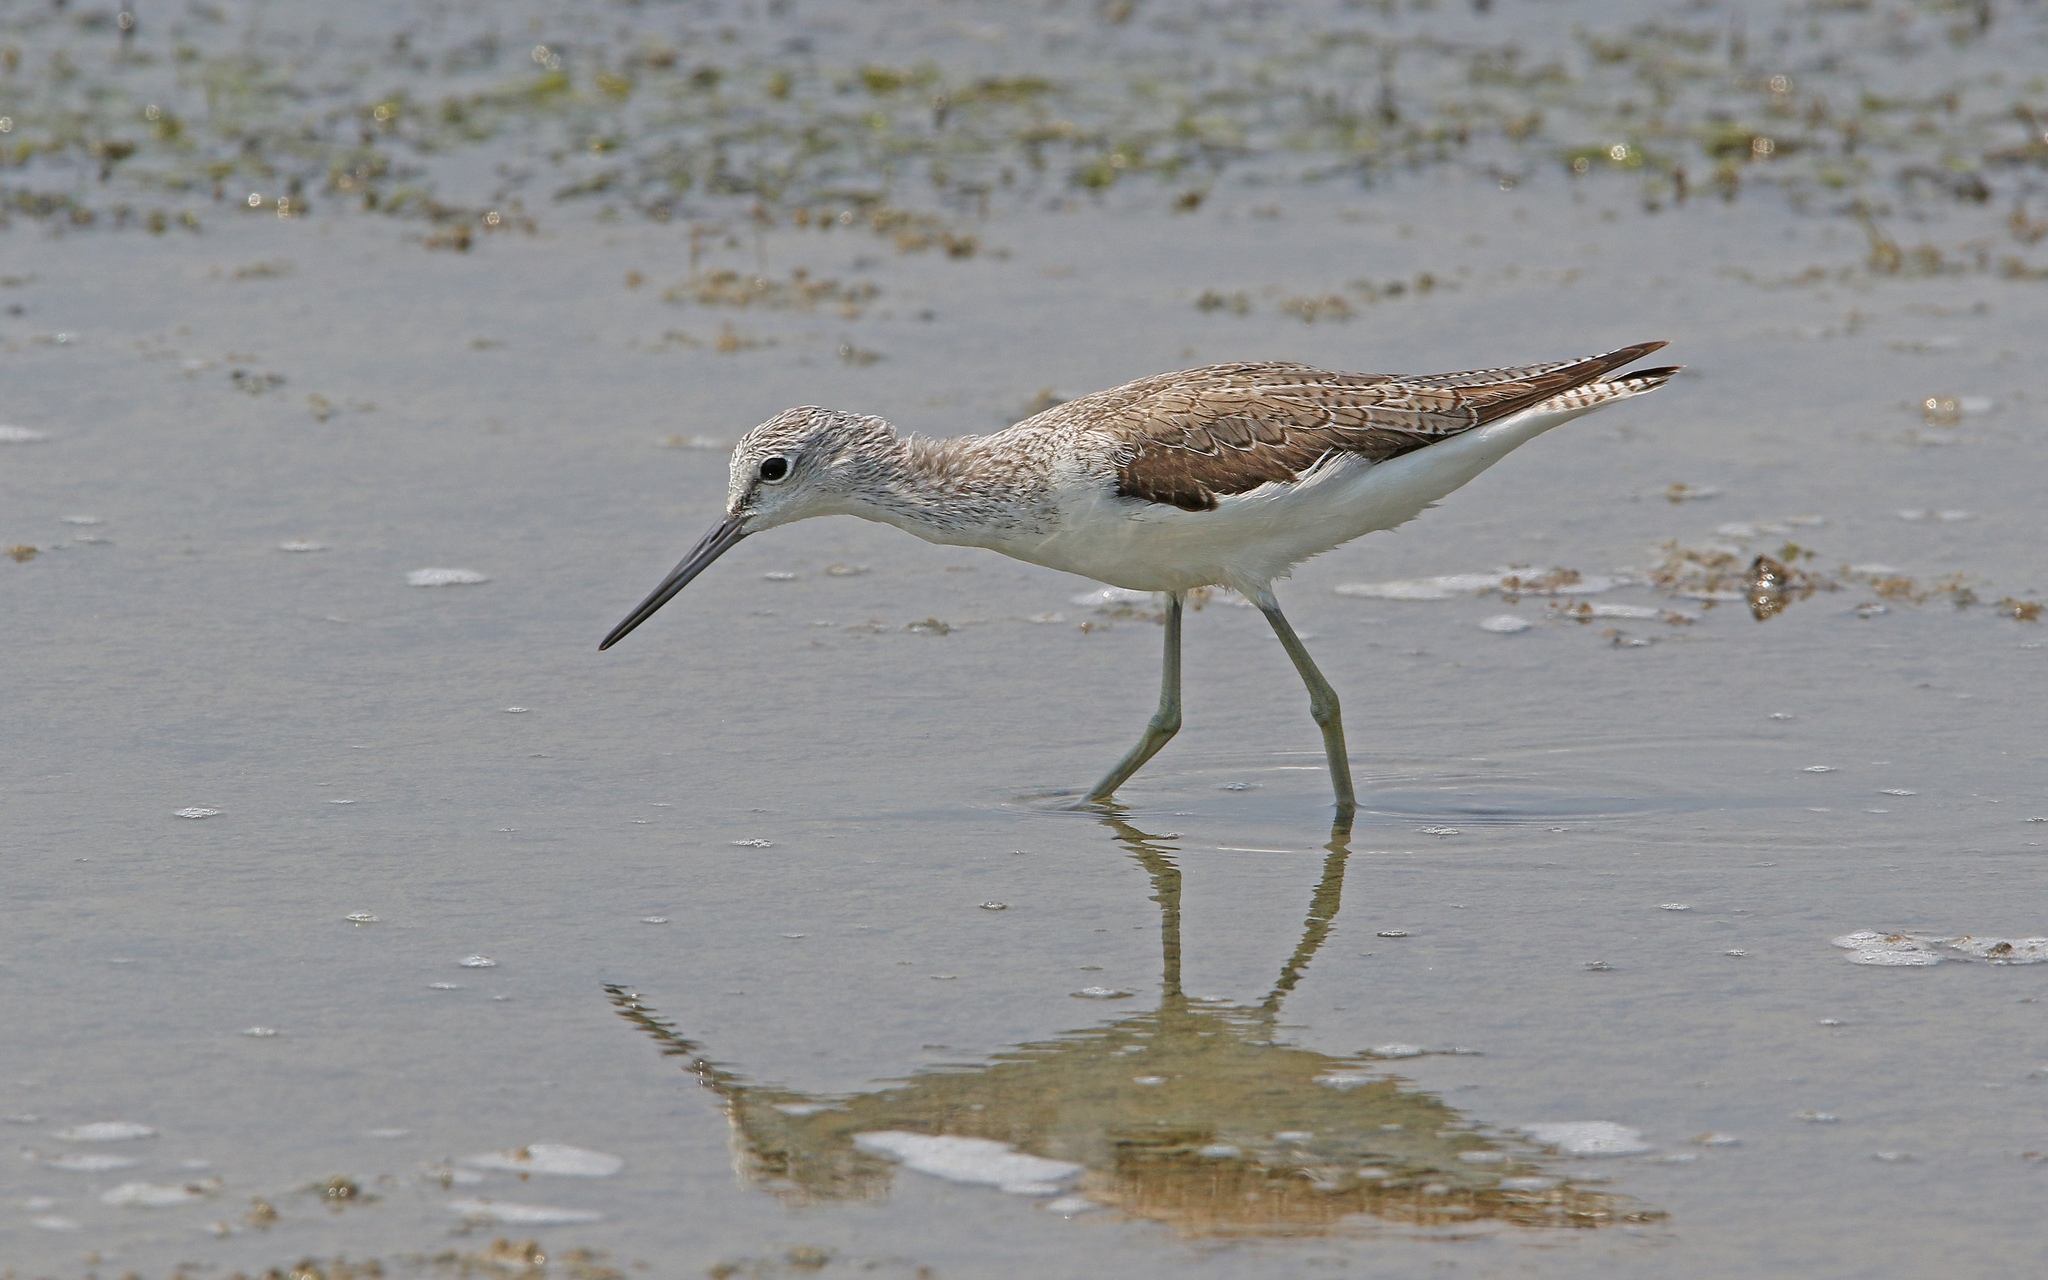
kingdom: Animalia
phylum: Chordata
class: Aves
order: Charadriiformes
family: Scolopacidae
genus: Tringa
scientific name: Tringa nebularia
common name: Common greenshank
